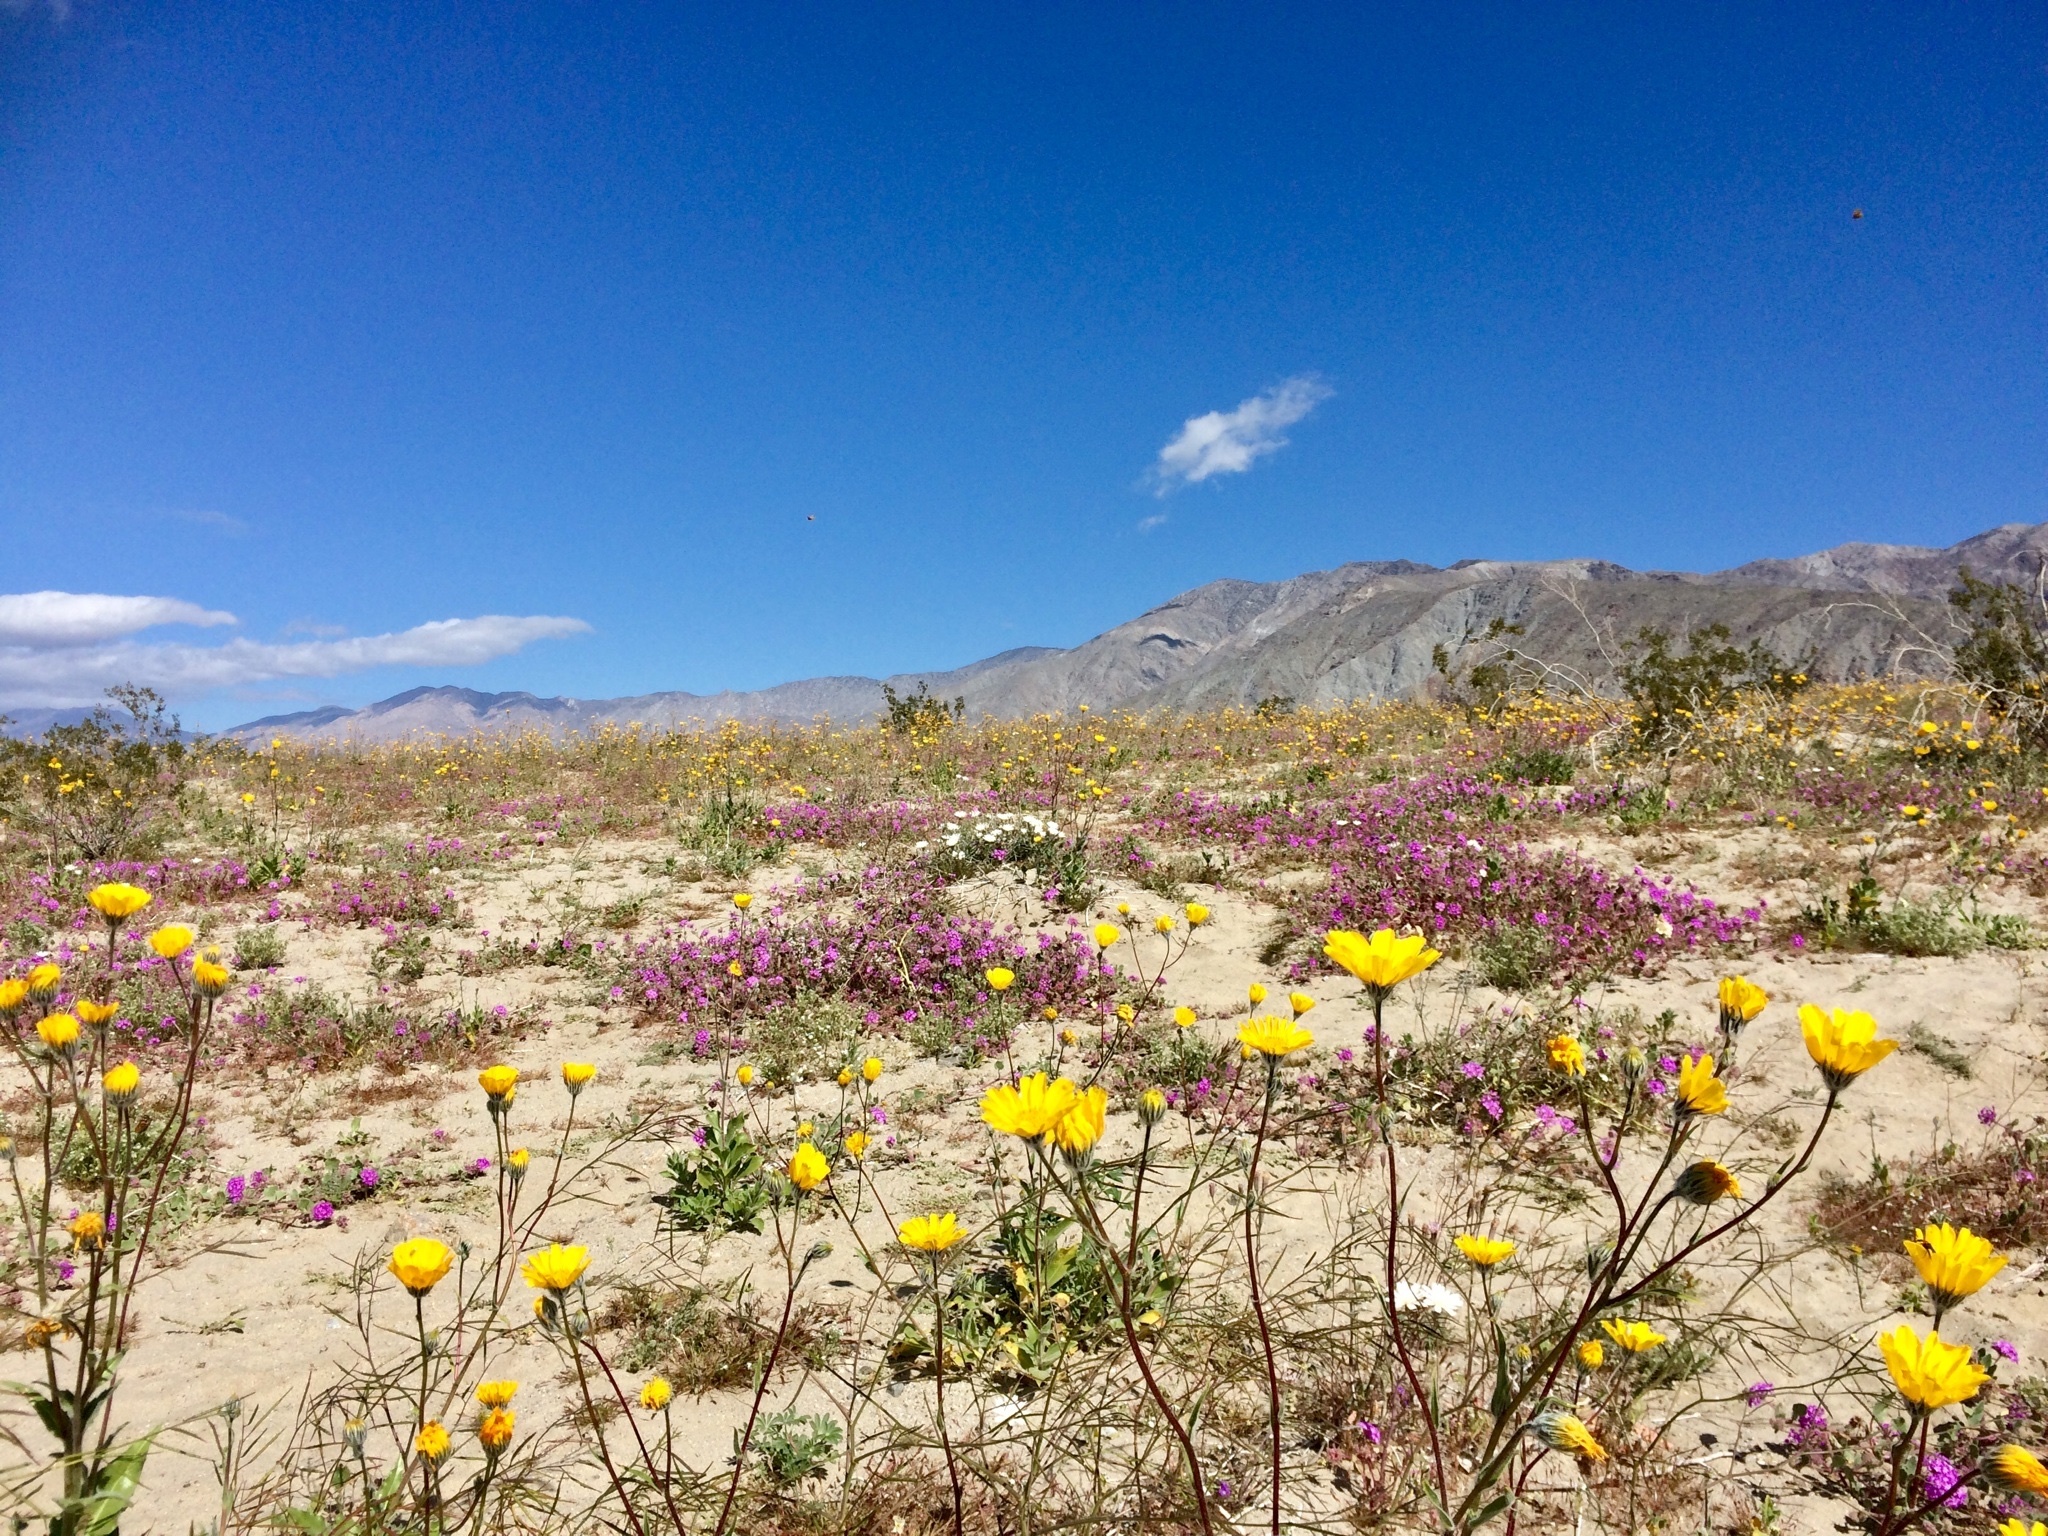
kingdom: Plantae
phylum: Tracheophyta
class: Magnoliopsida
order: Asterales
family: Asteraceae
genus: Geraea
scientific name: Geraea canescens
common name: Desert-gold
